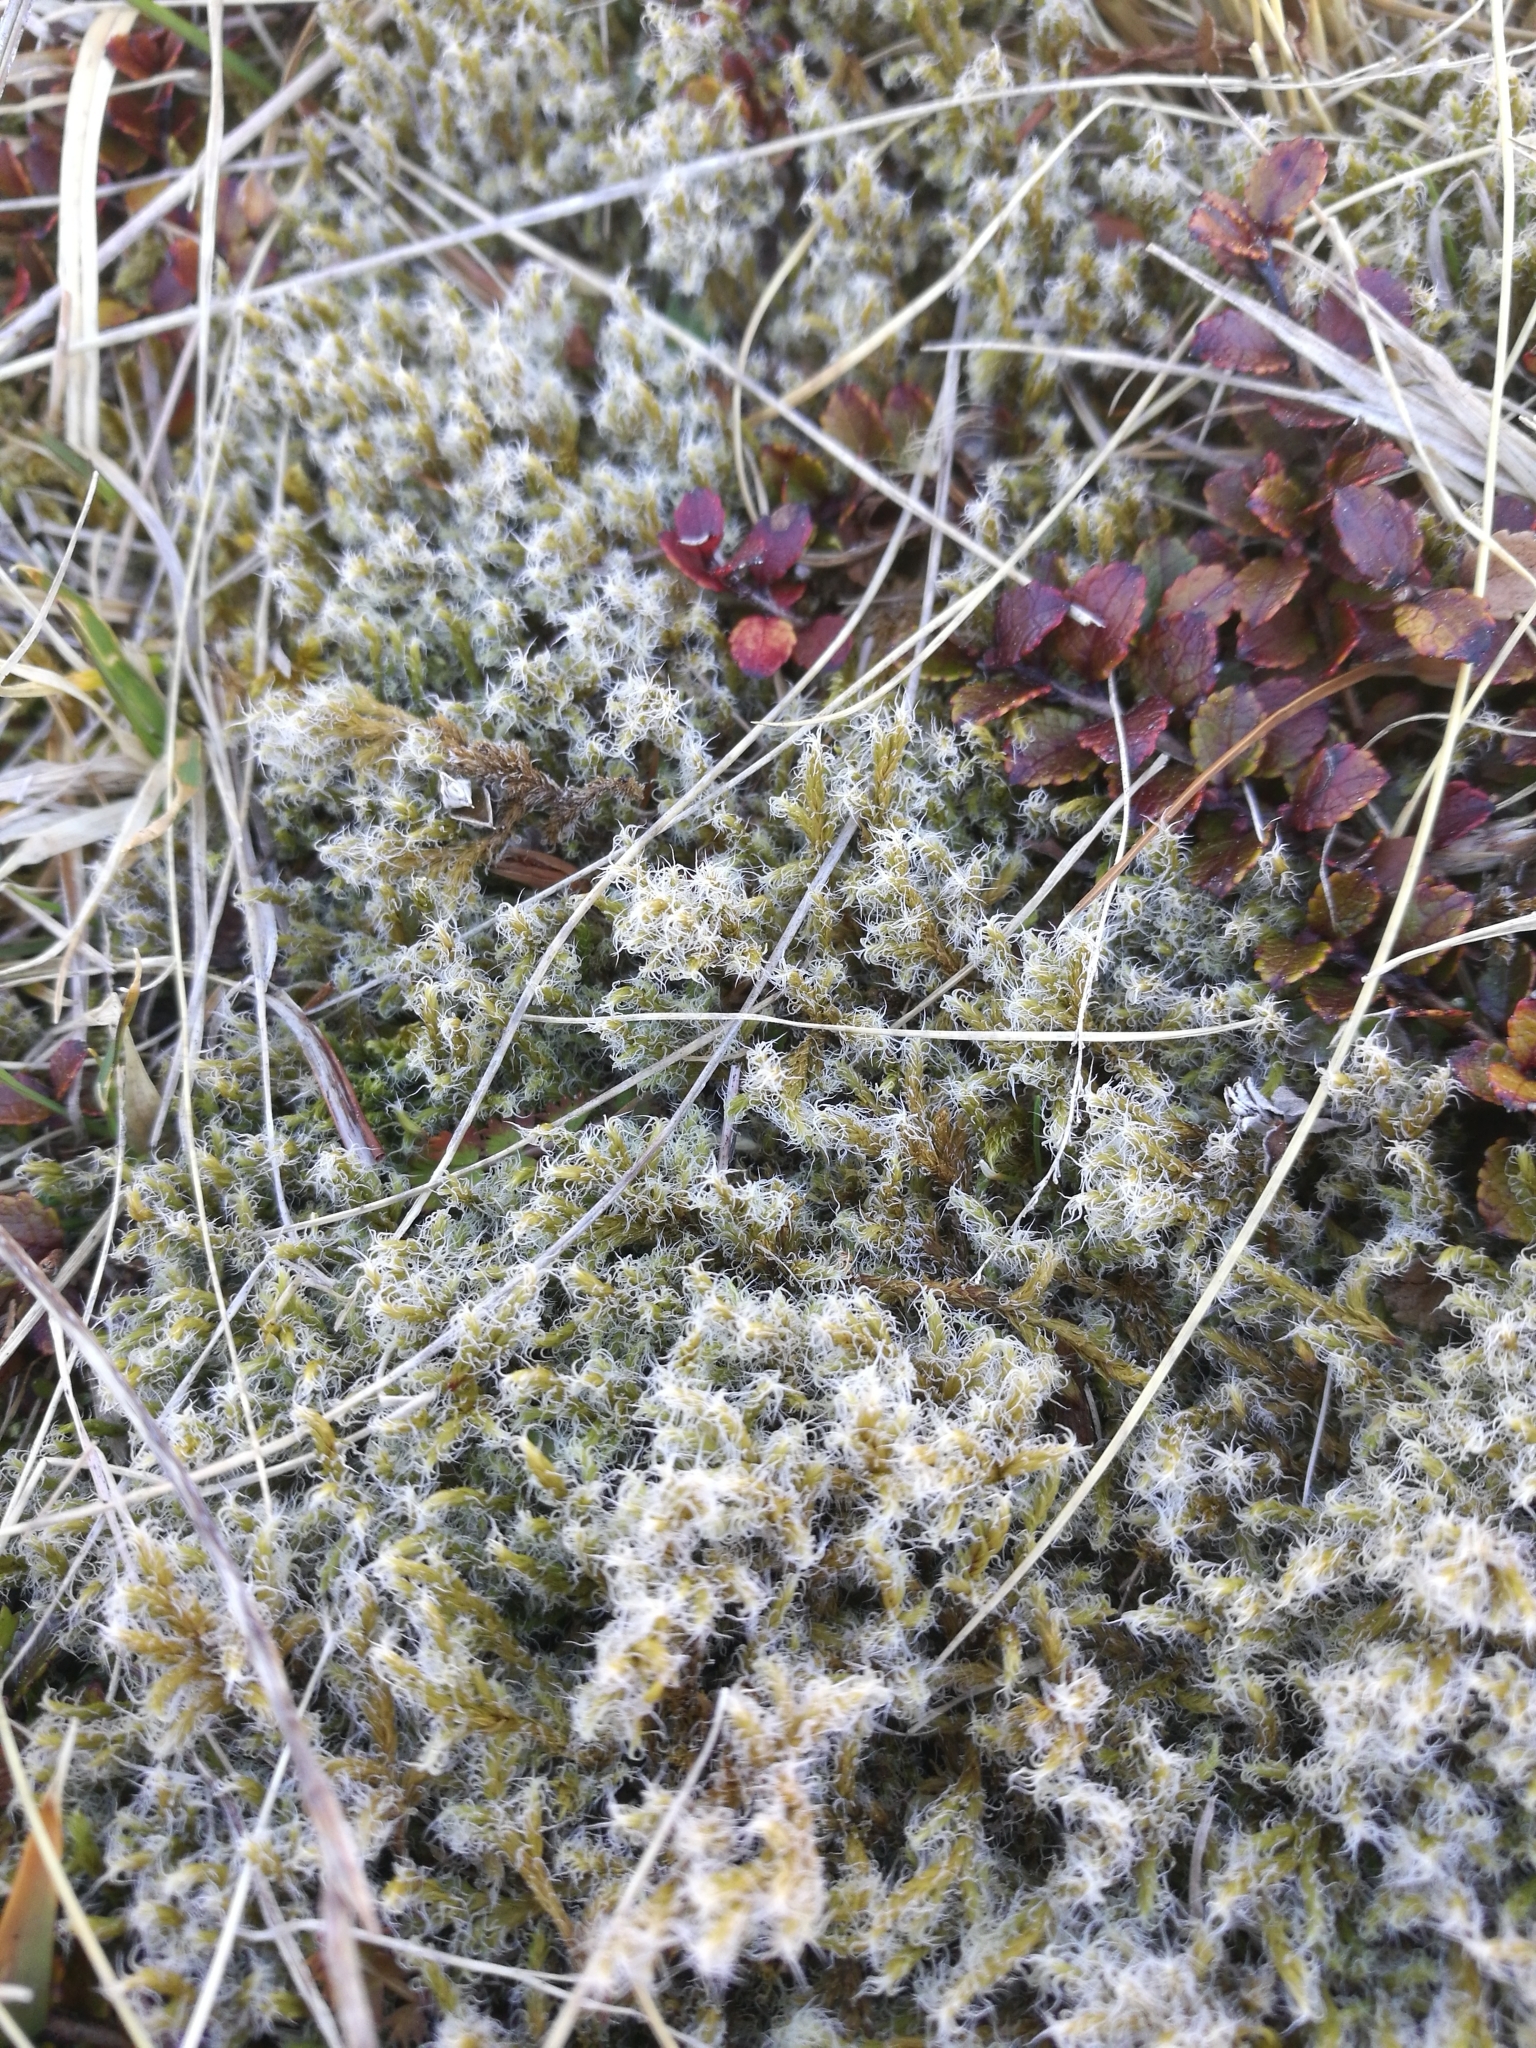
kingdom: Plantae
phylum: Bryophyta
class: Bryopsida
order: Grimmiales
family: Grimmiaceae
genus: Racomitrium
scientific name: Racomitrium lanuginosum
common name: Hoary rock moss
